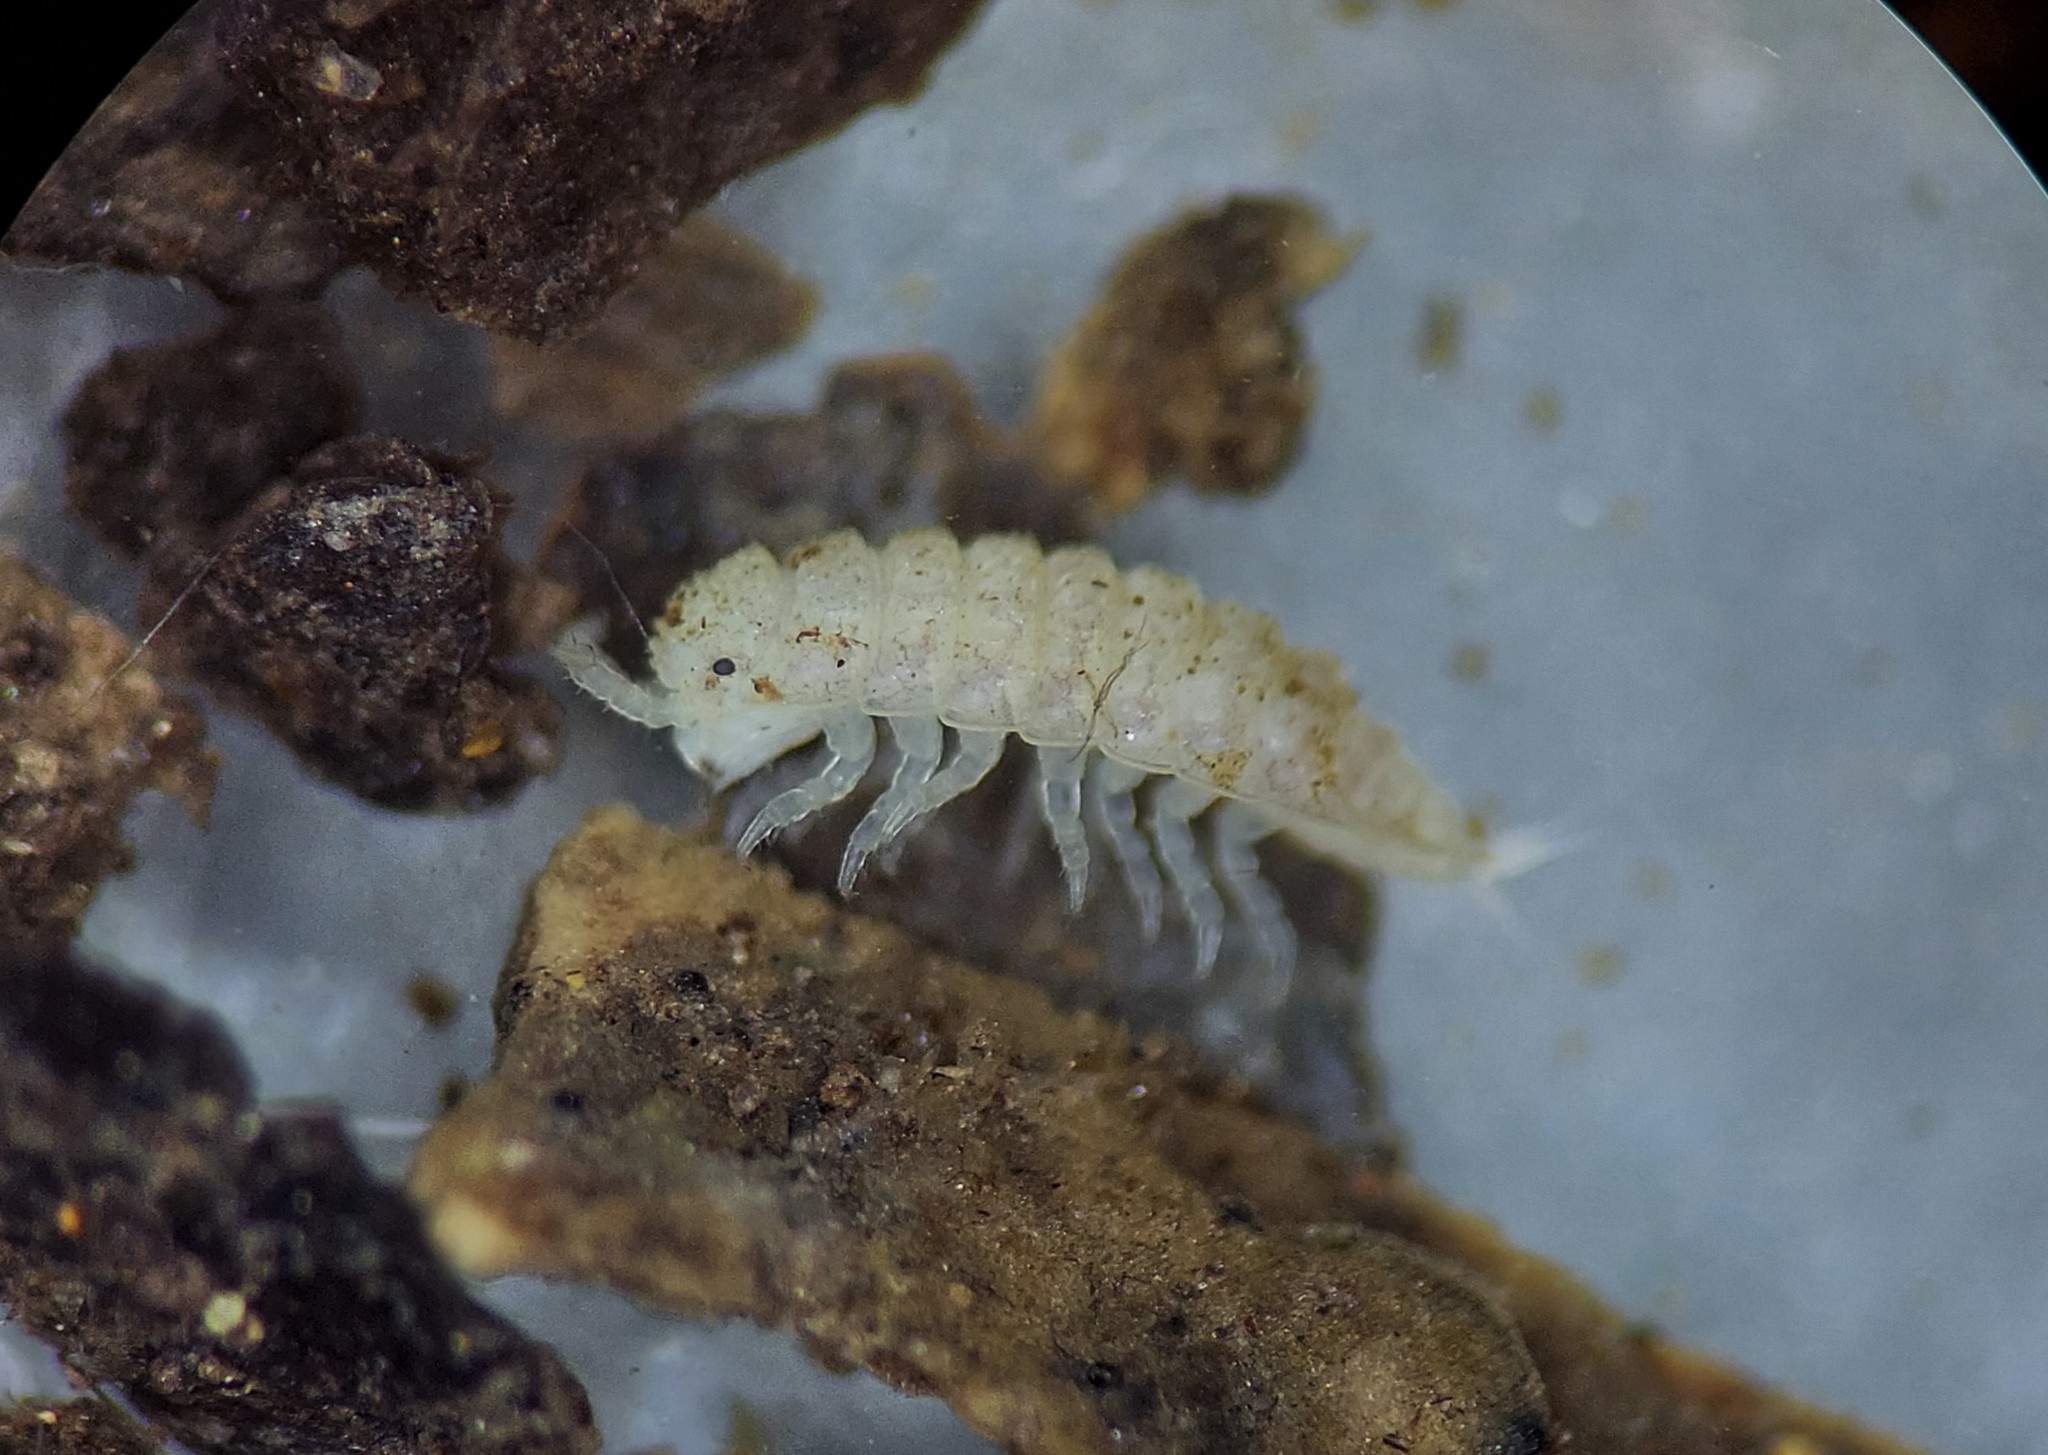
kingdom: Animalia
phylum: Arthropoda
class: Malacostraca
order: Isopoda
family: Trichoniscidae
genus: Haplophthalmus
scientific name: Haplophthalmus danicus
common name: Pillbug
